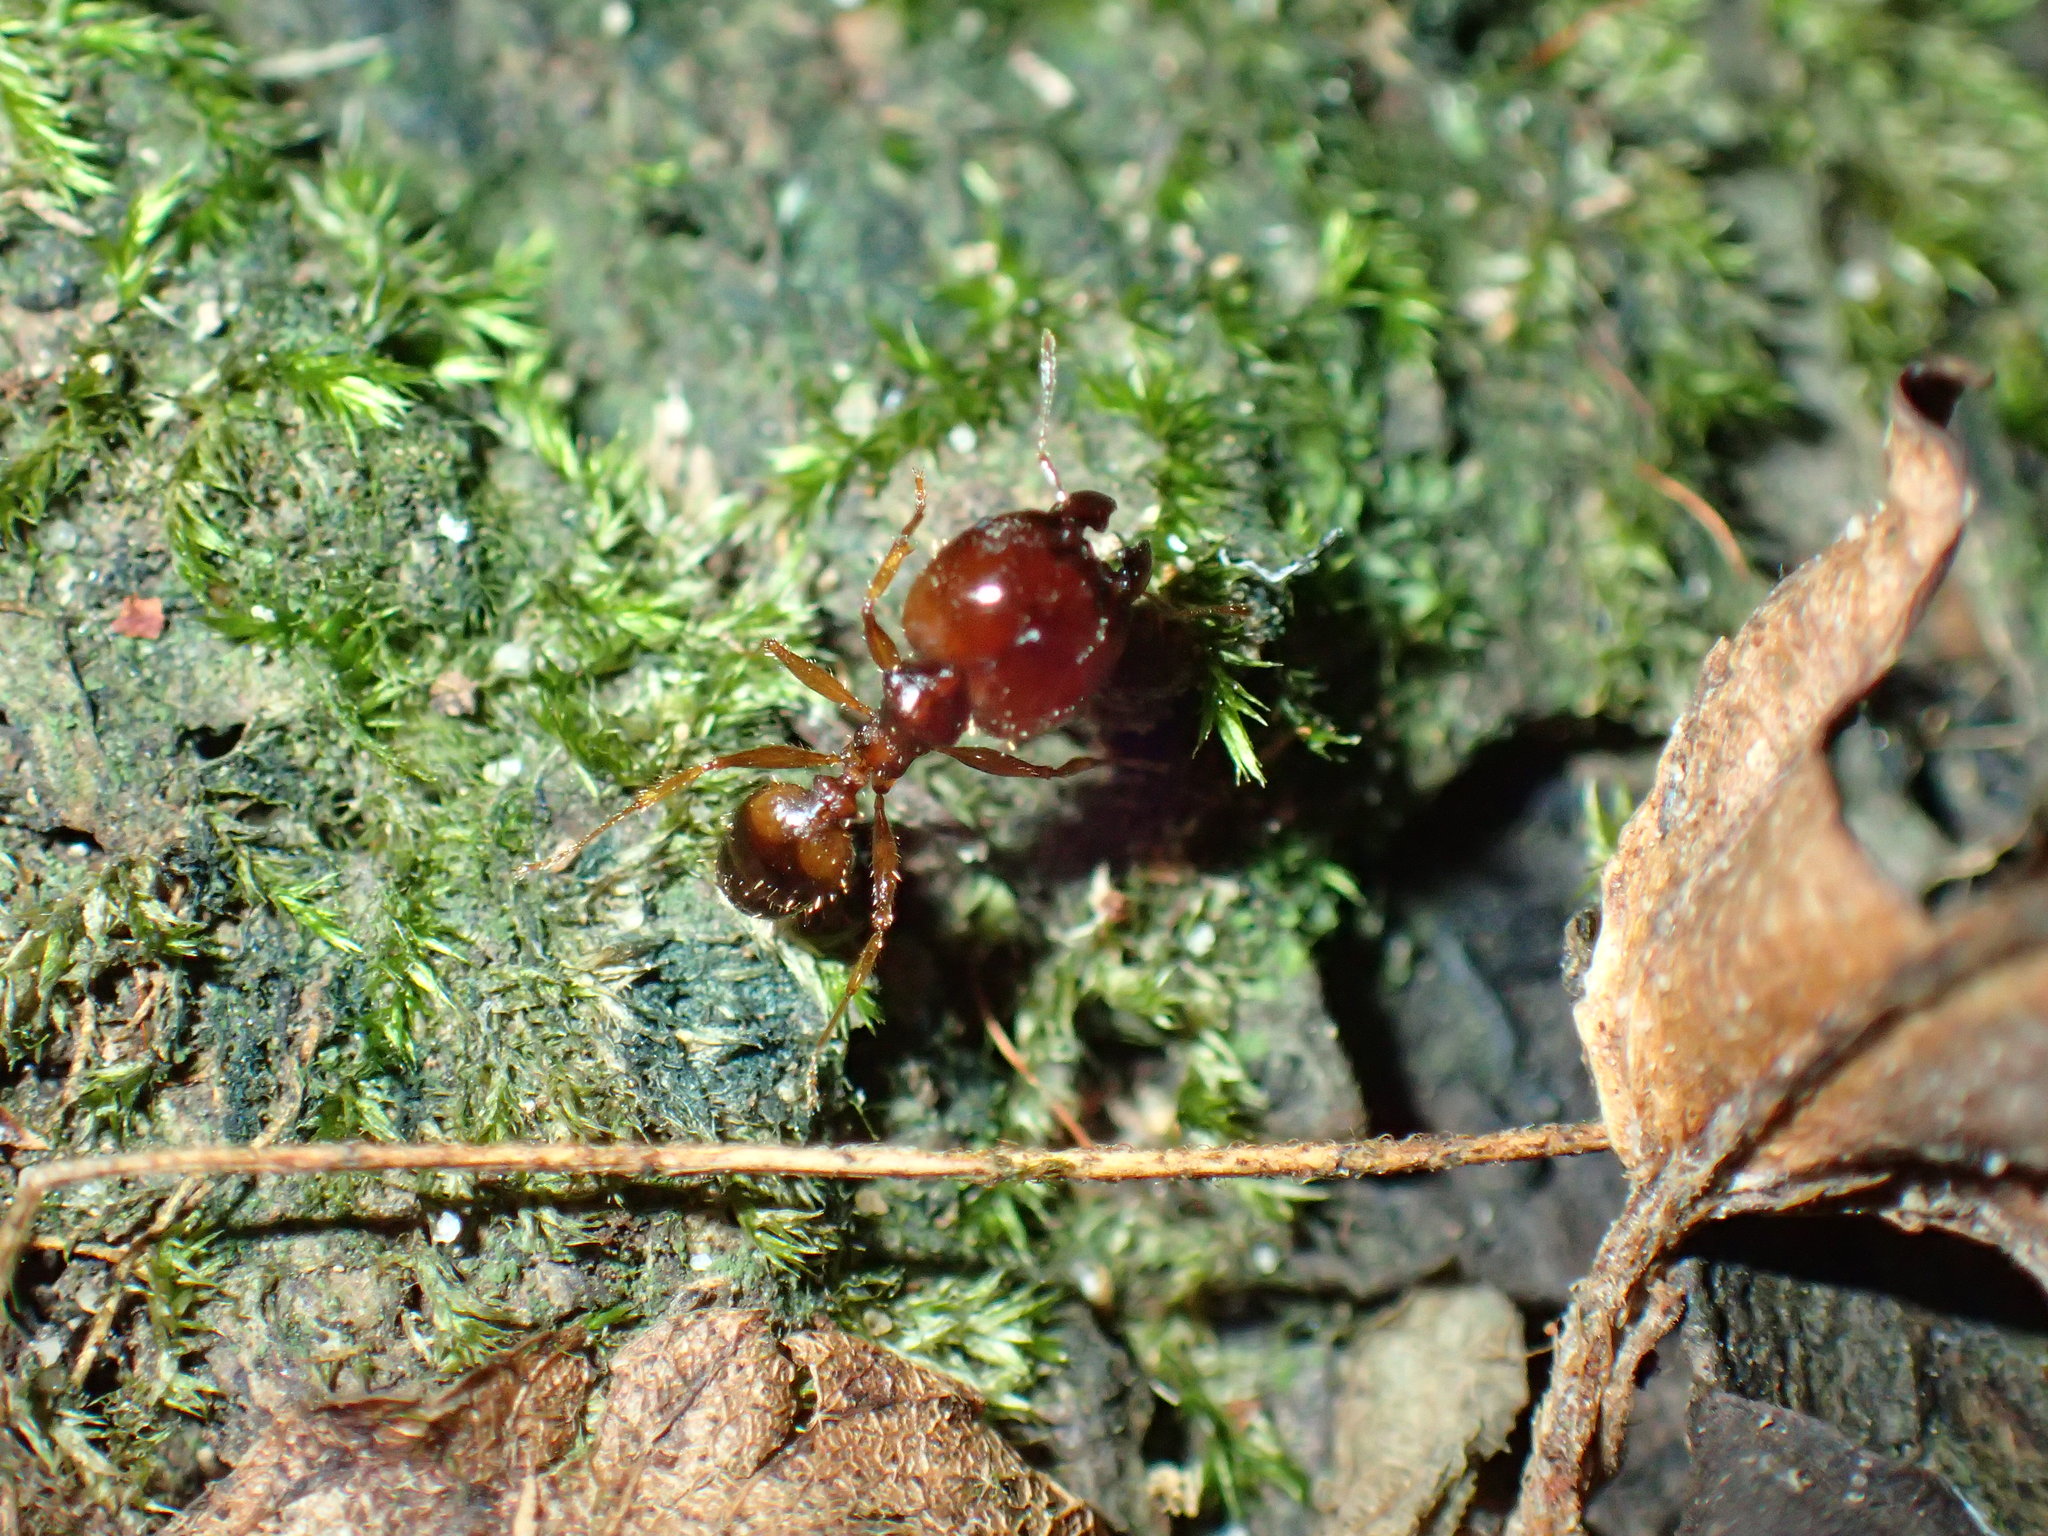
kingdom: Animalia
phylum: Arthropoda
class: Insecta
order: Hymenoptera
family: Formicidae
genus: Pheidole
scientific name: Pheidole akermani
